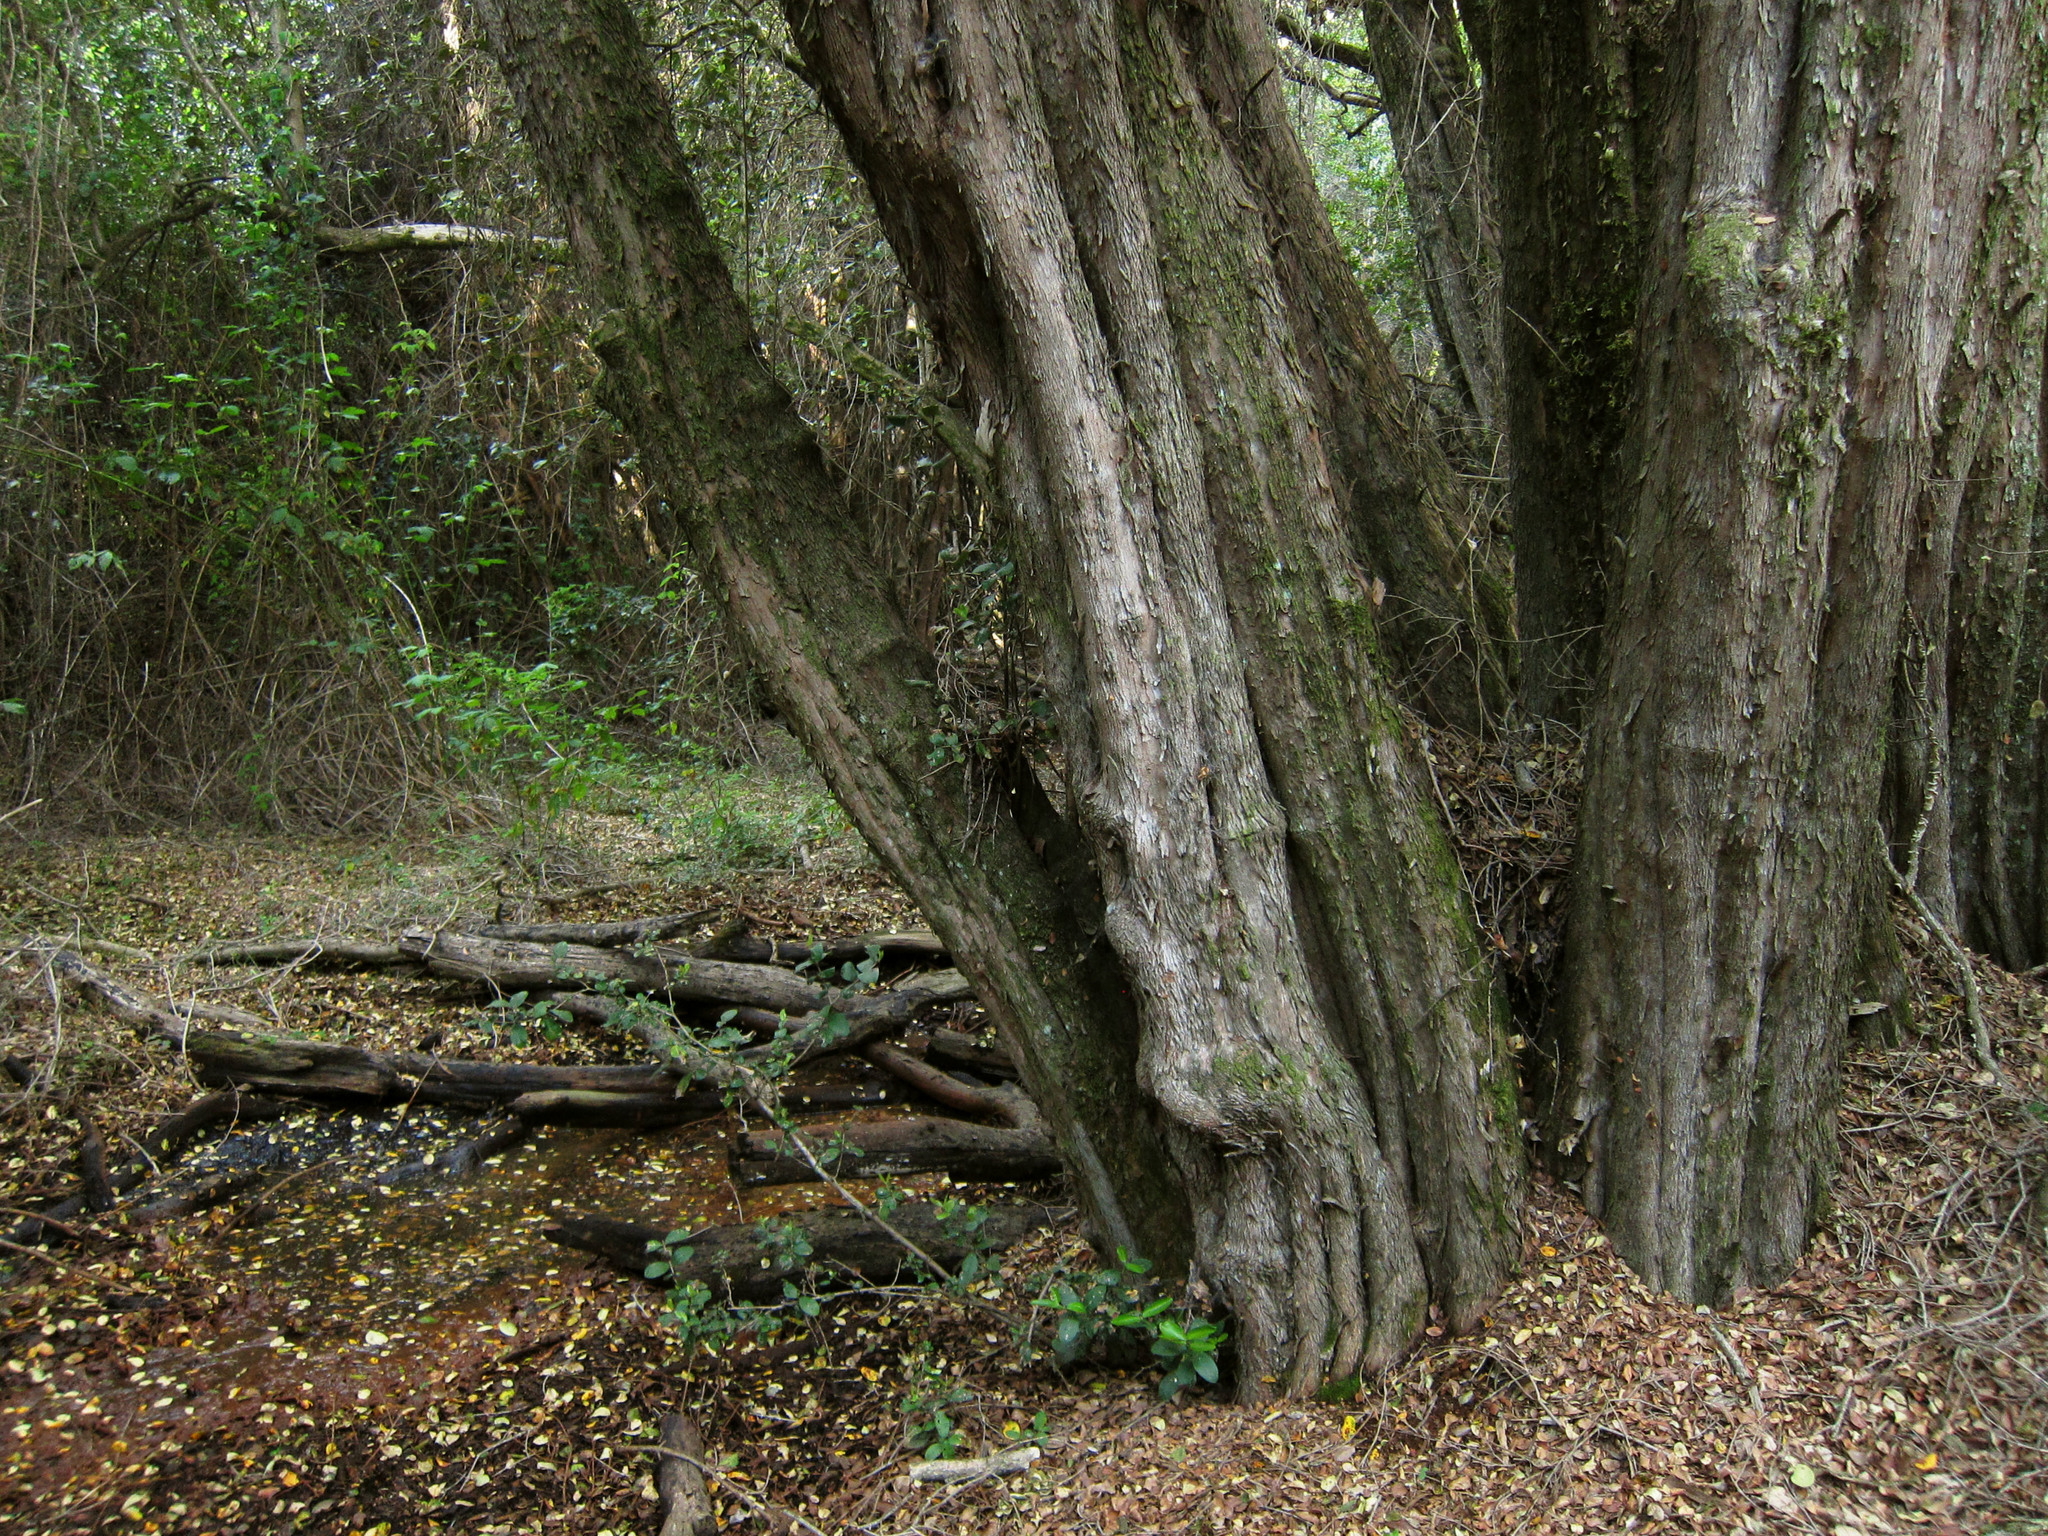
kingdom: Plantae
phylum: Tracheophyta
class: Magnoliopsida
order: Myrtales
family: Myrtaceae
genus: Myrceugenia
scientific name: Myrceugenia exsucca
